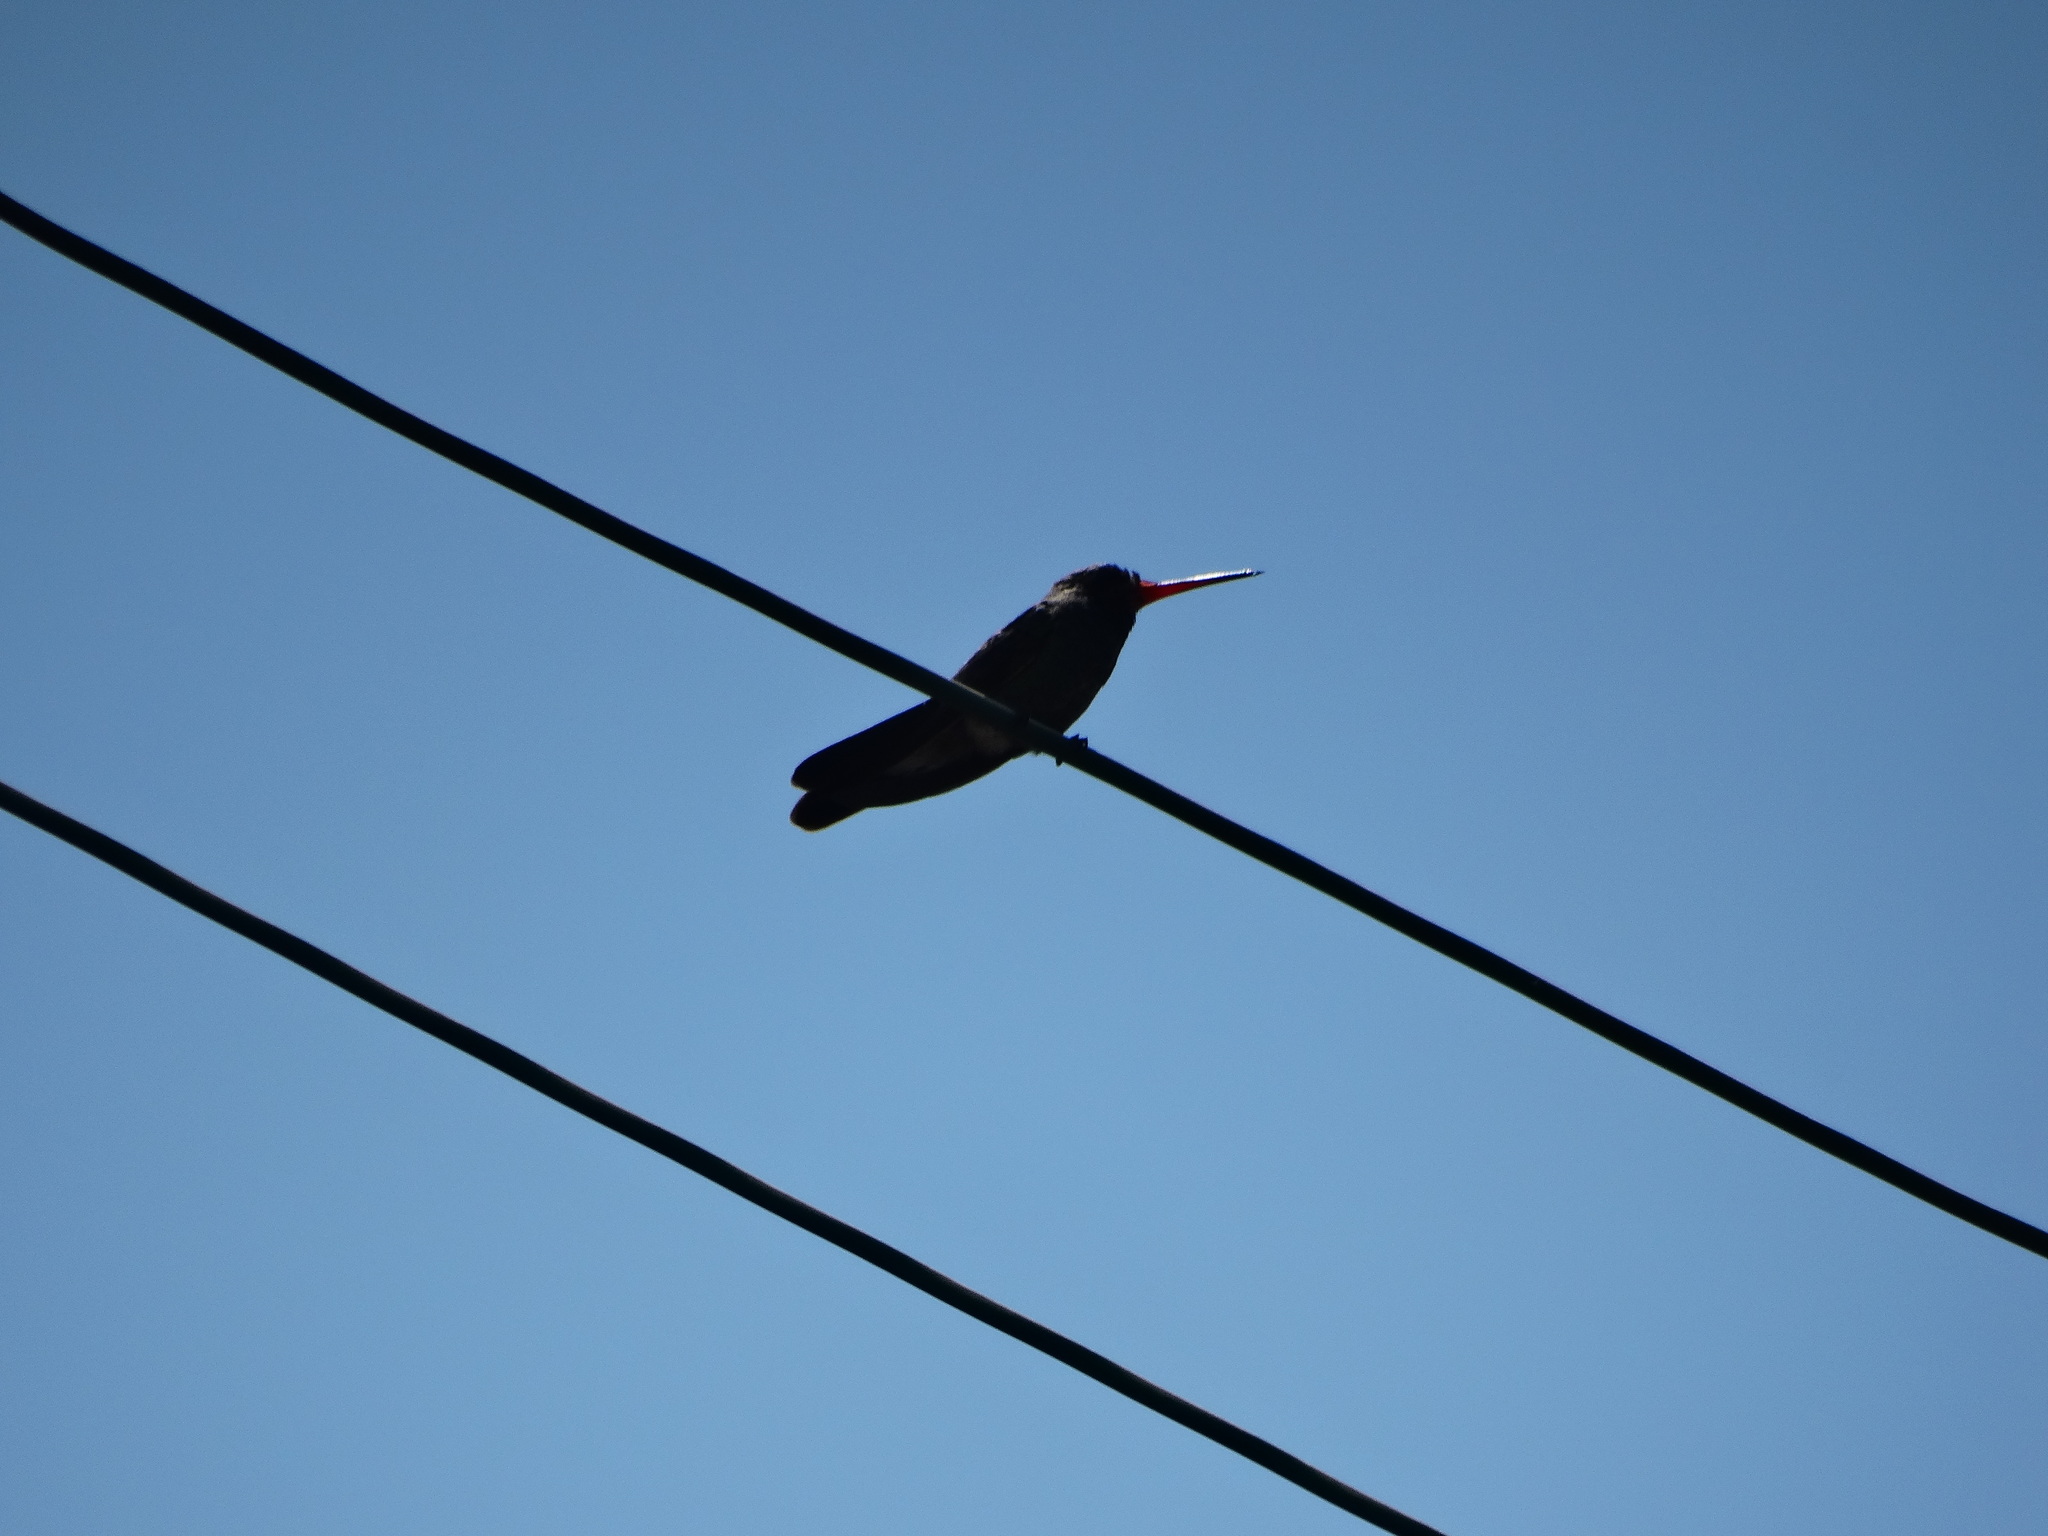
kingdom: Animalia
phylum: Chordata
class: Aves
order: Apodiformes
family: Trochilidae
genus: Cynanthus
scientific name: Cynanthus latirostris
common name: Broad-billed hummingbird
